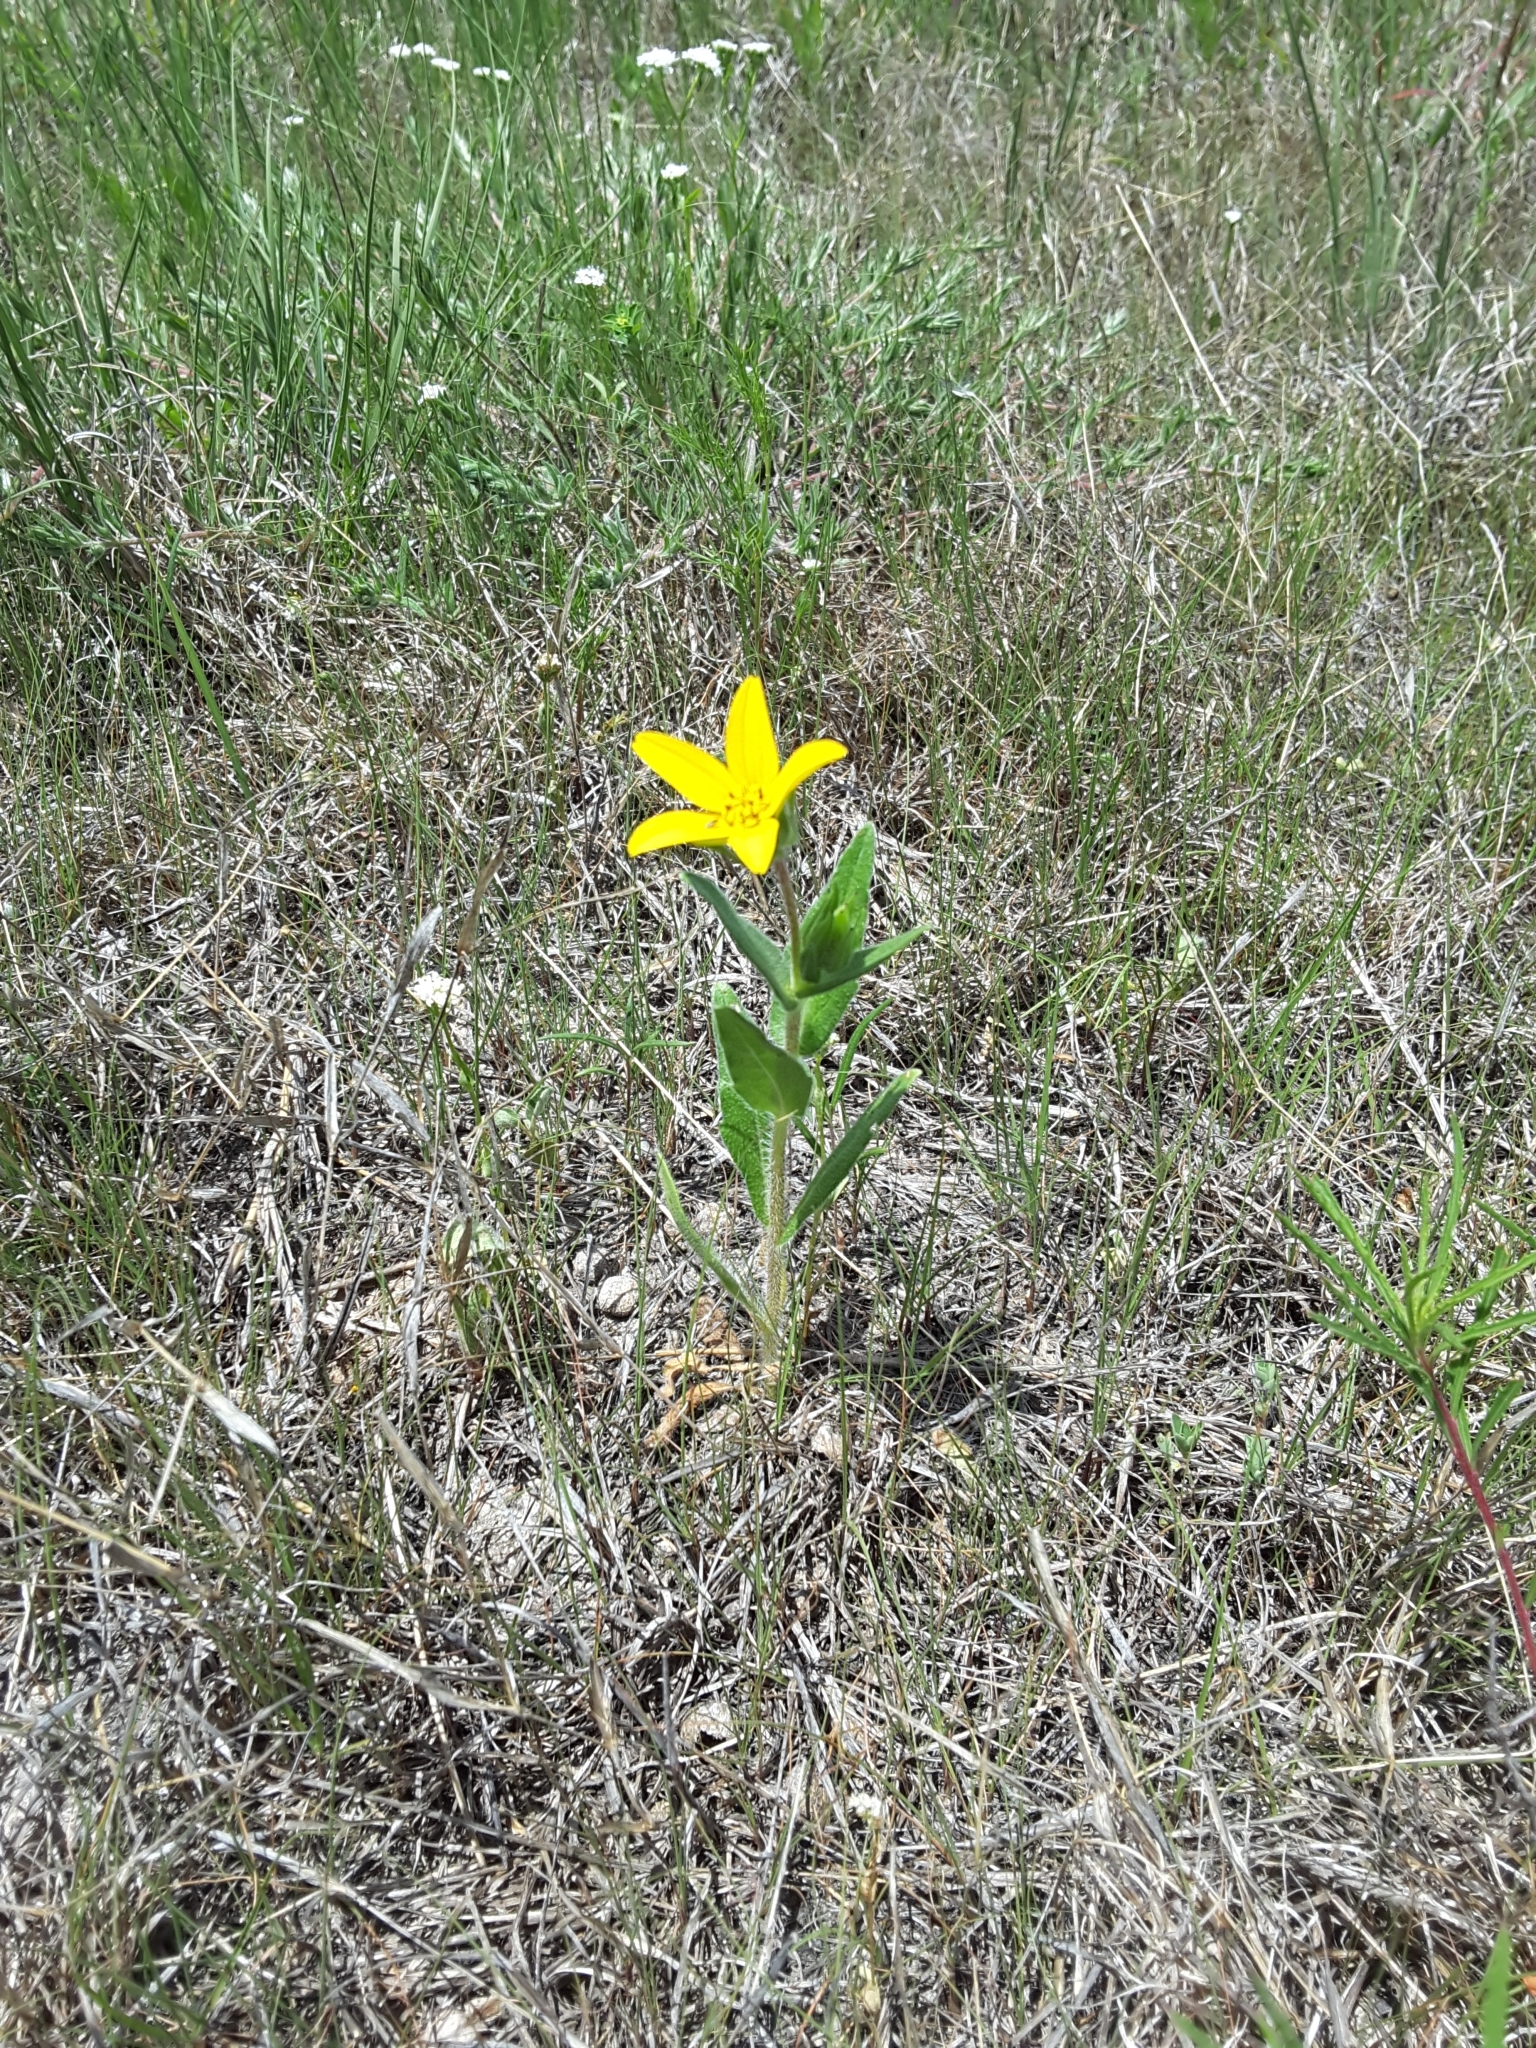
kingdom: Plantae
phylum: Tracheophyta
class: Magnoliopsida
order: Asterales
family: Asteraceae
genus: Lindheimera
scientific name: Lindheimera texana
